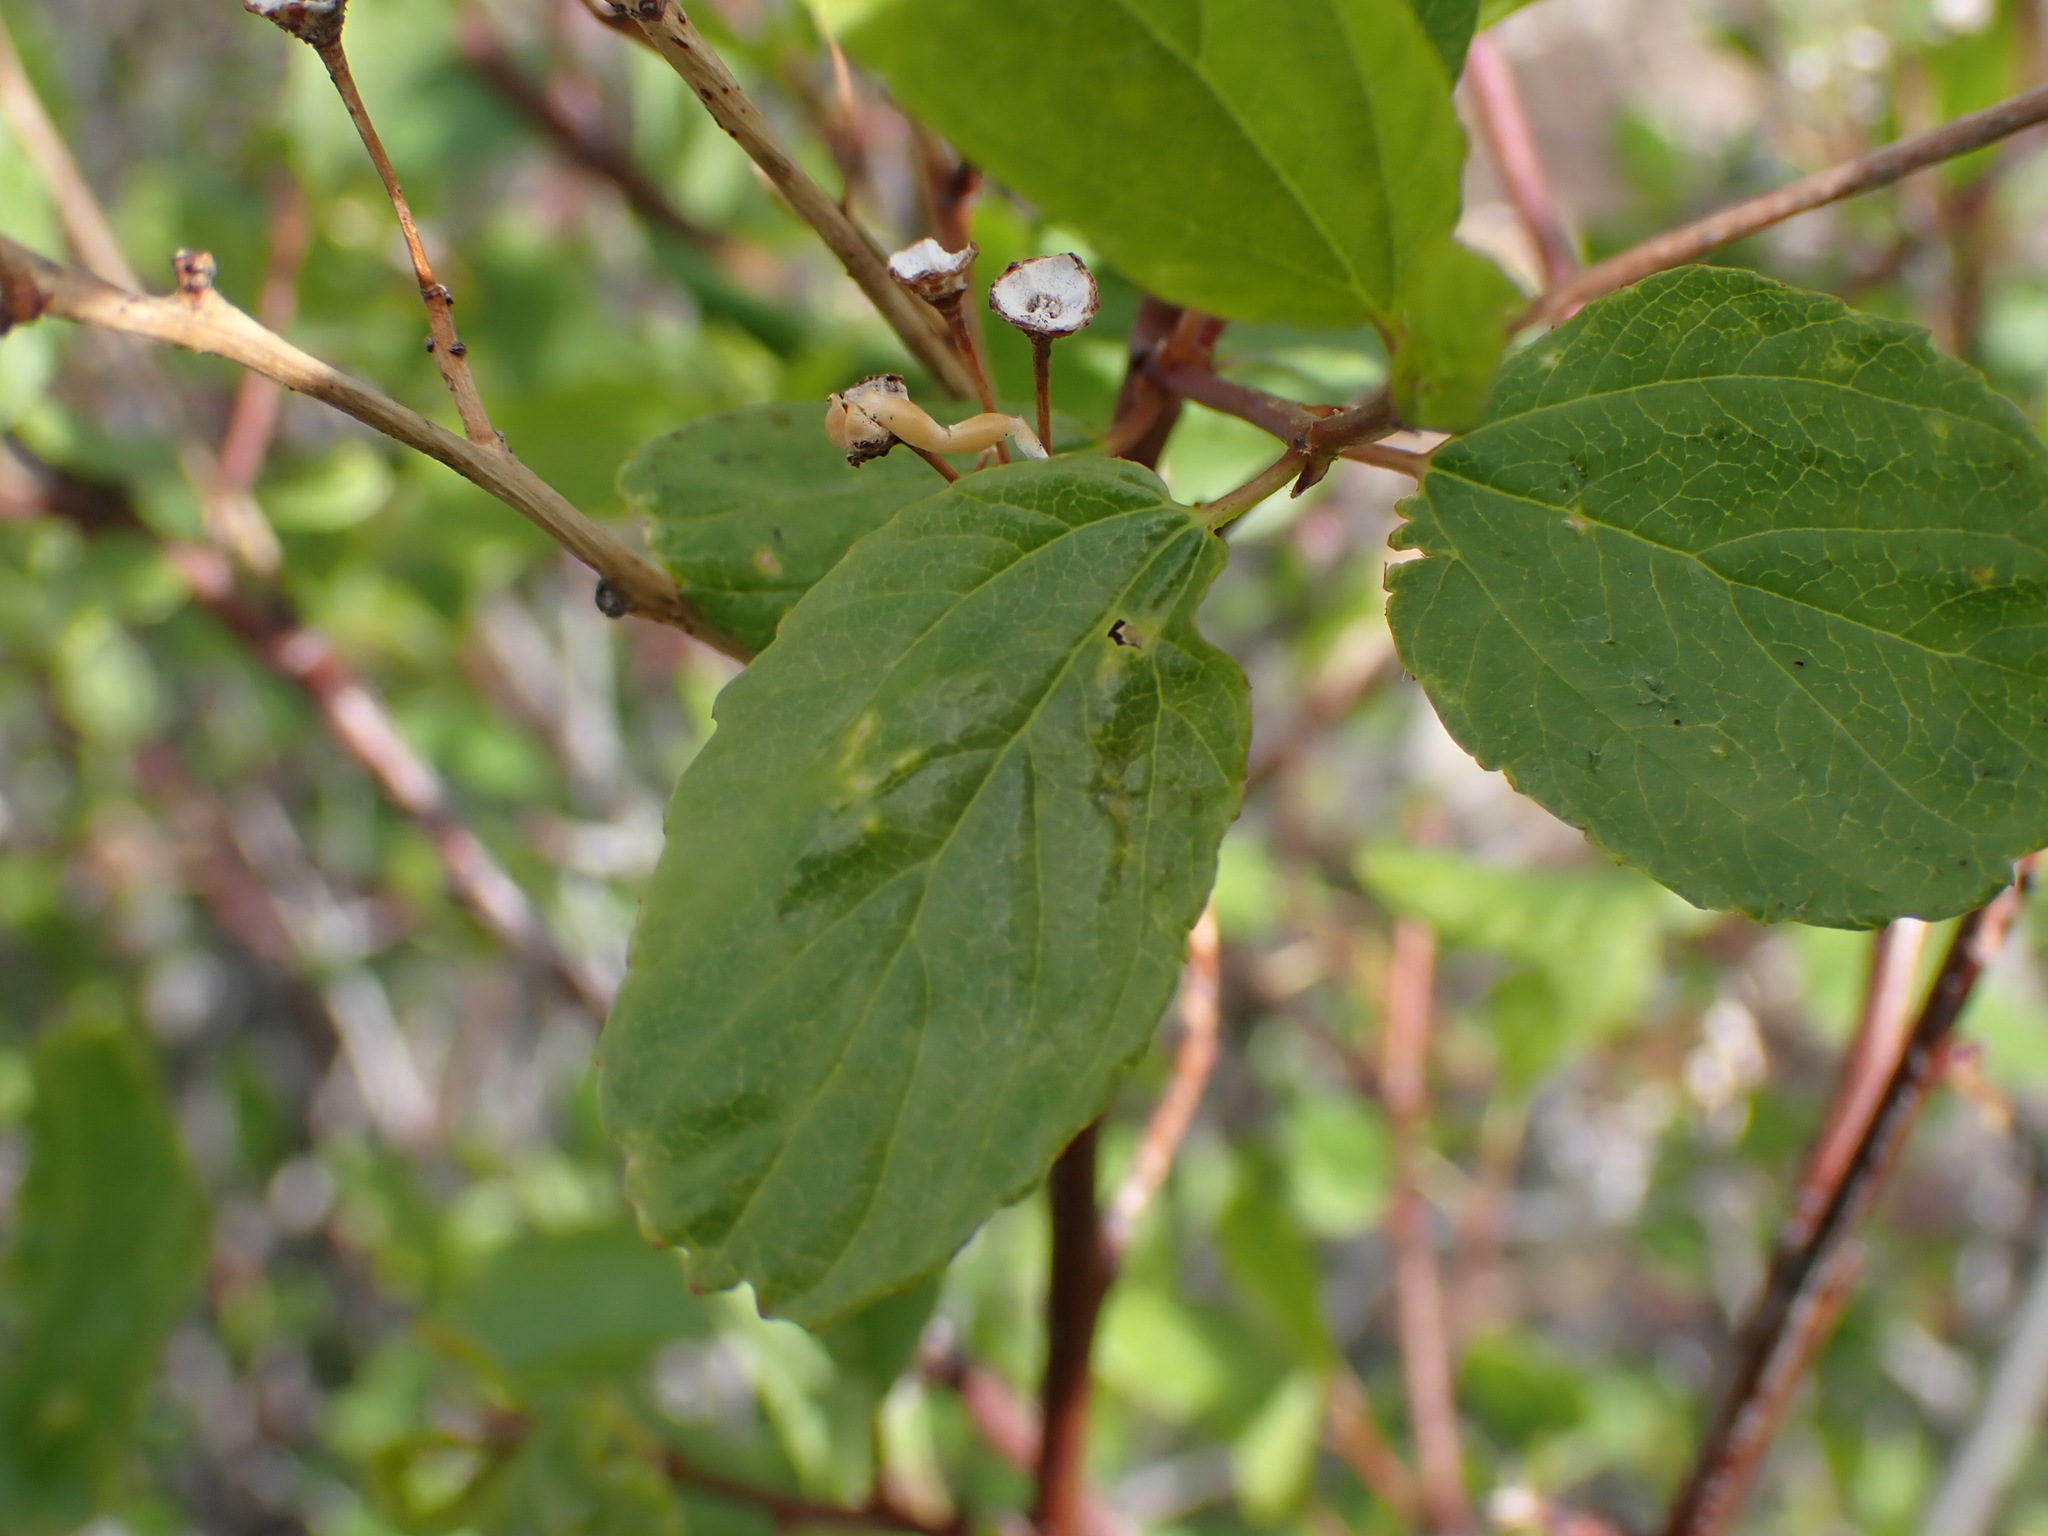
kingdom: Plantae
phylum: Tracheophyta
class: Magnoliopsida
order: Rosales
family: Rhamnaceae
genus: Ceanothus
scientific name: Ceanothus sanguineus
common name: Teatree
